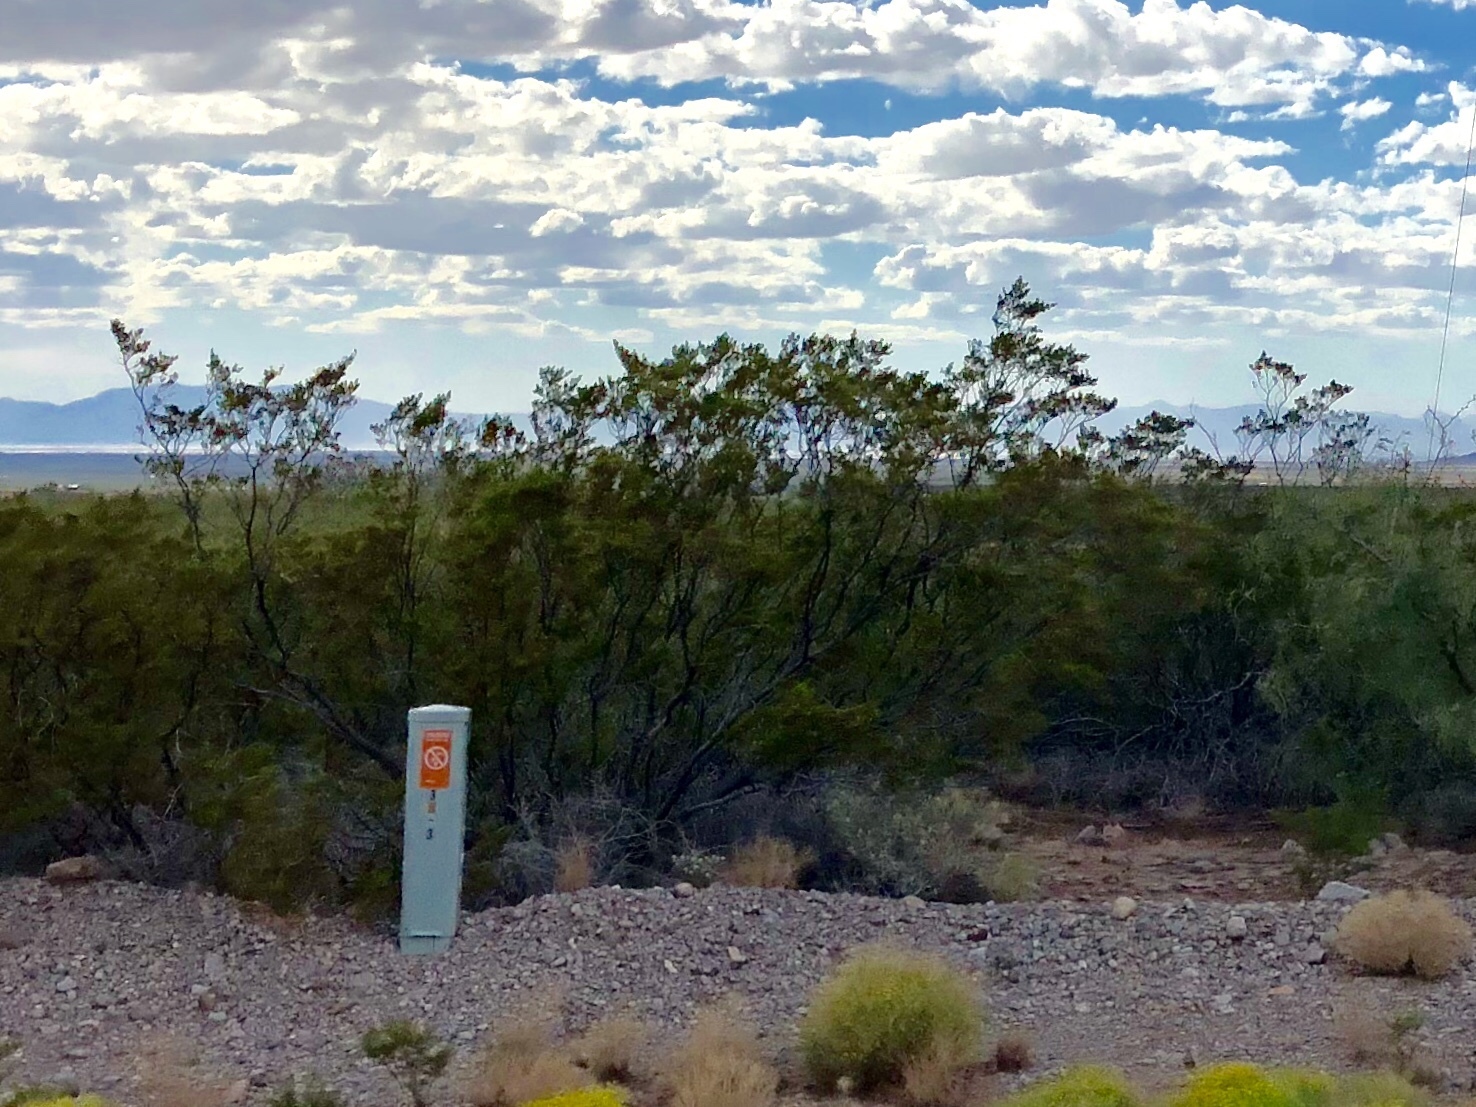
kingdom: Plantae
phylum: Tracheophyta
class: Magnoliopsida
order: Zygophyllales
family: Zygophyllaceae
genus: Larrea
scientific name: Larrea tridentata
